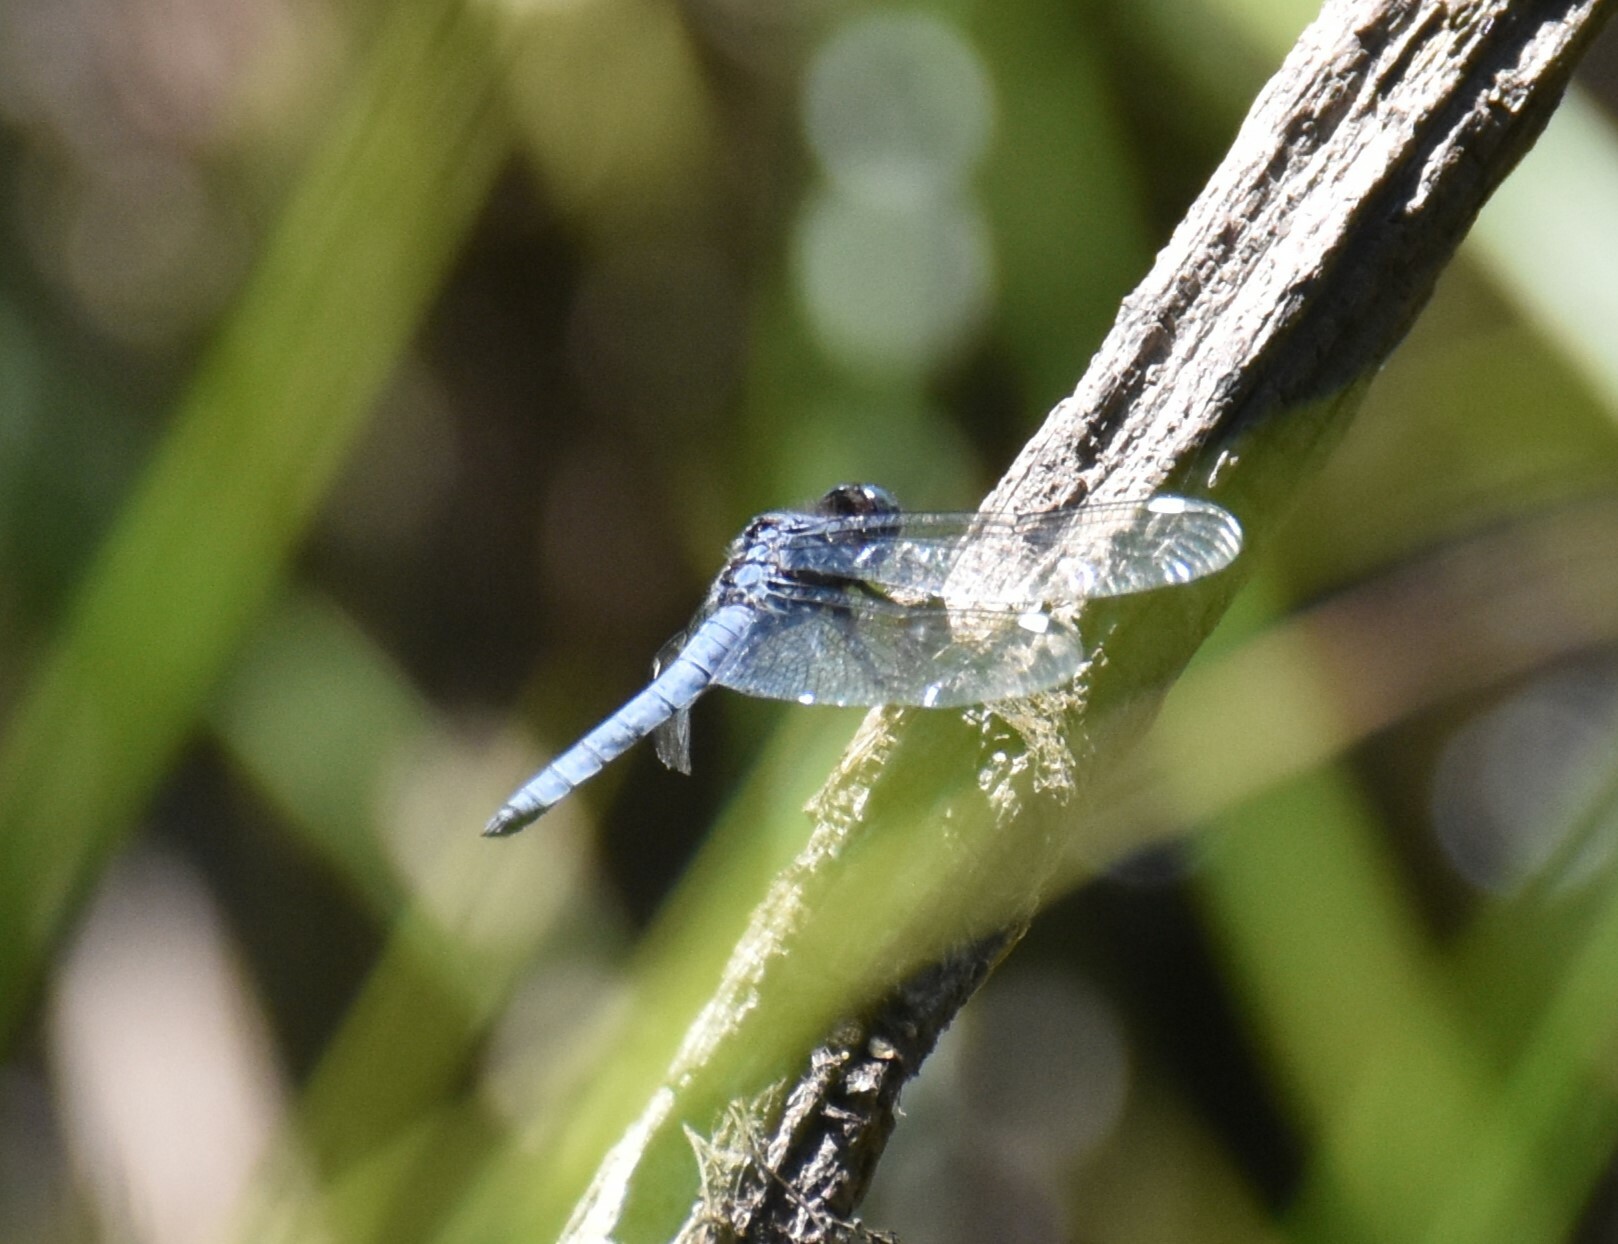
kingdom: Animalia
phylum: Arthropoda
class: Insecta
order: Odonata
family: Libellulidae
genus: Libellula
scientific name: Libellula cyanea
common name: Spangled skimmer
